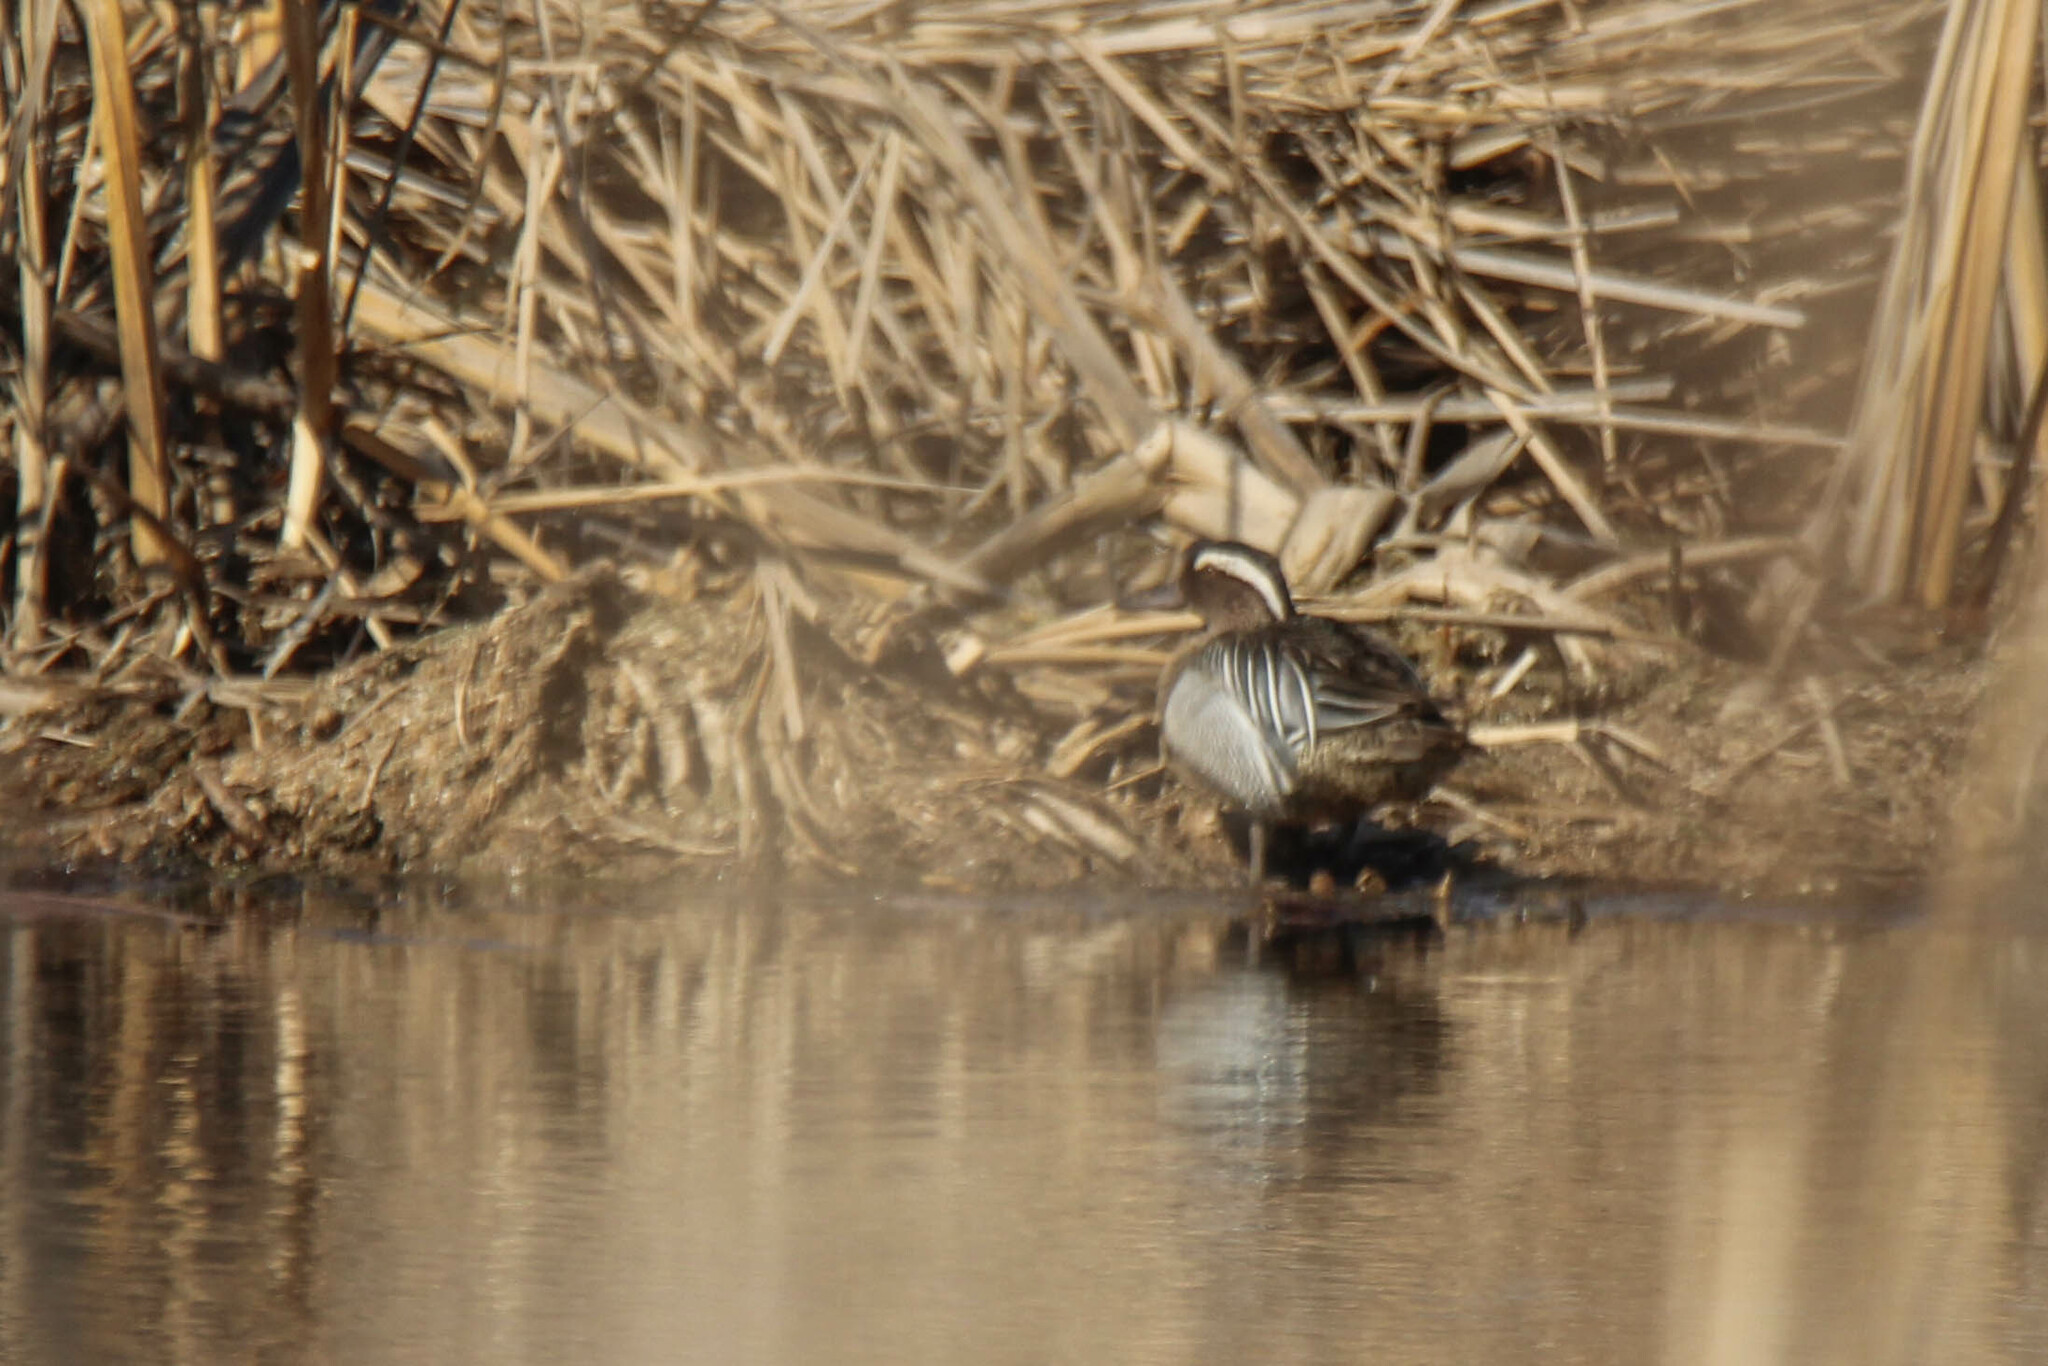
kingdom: Animalia
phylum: Chordata
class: Aves
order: Anseriformes
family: Anatidae
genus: Spatula
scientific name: Spatula querquedula
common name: Garganey
